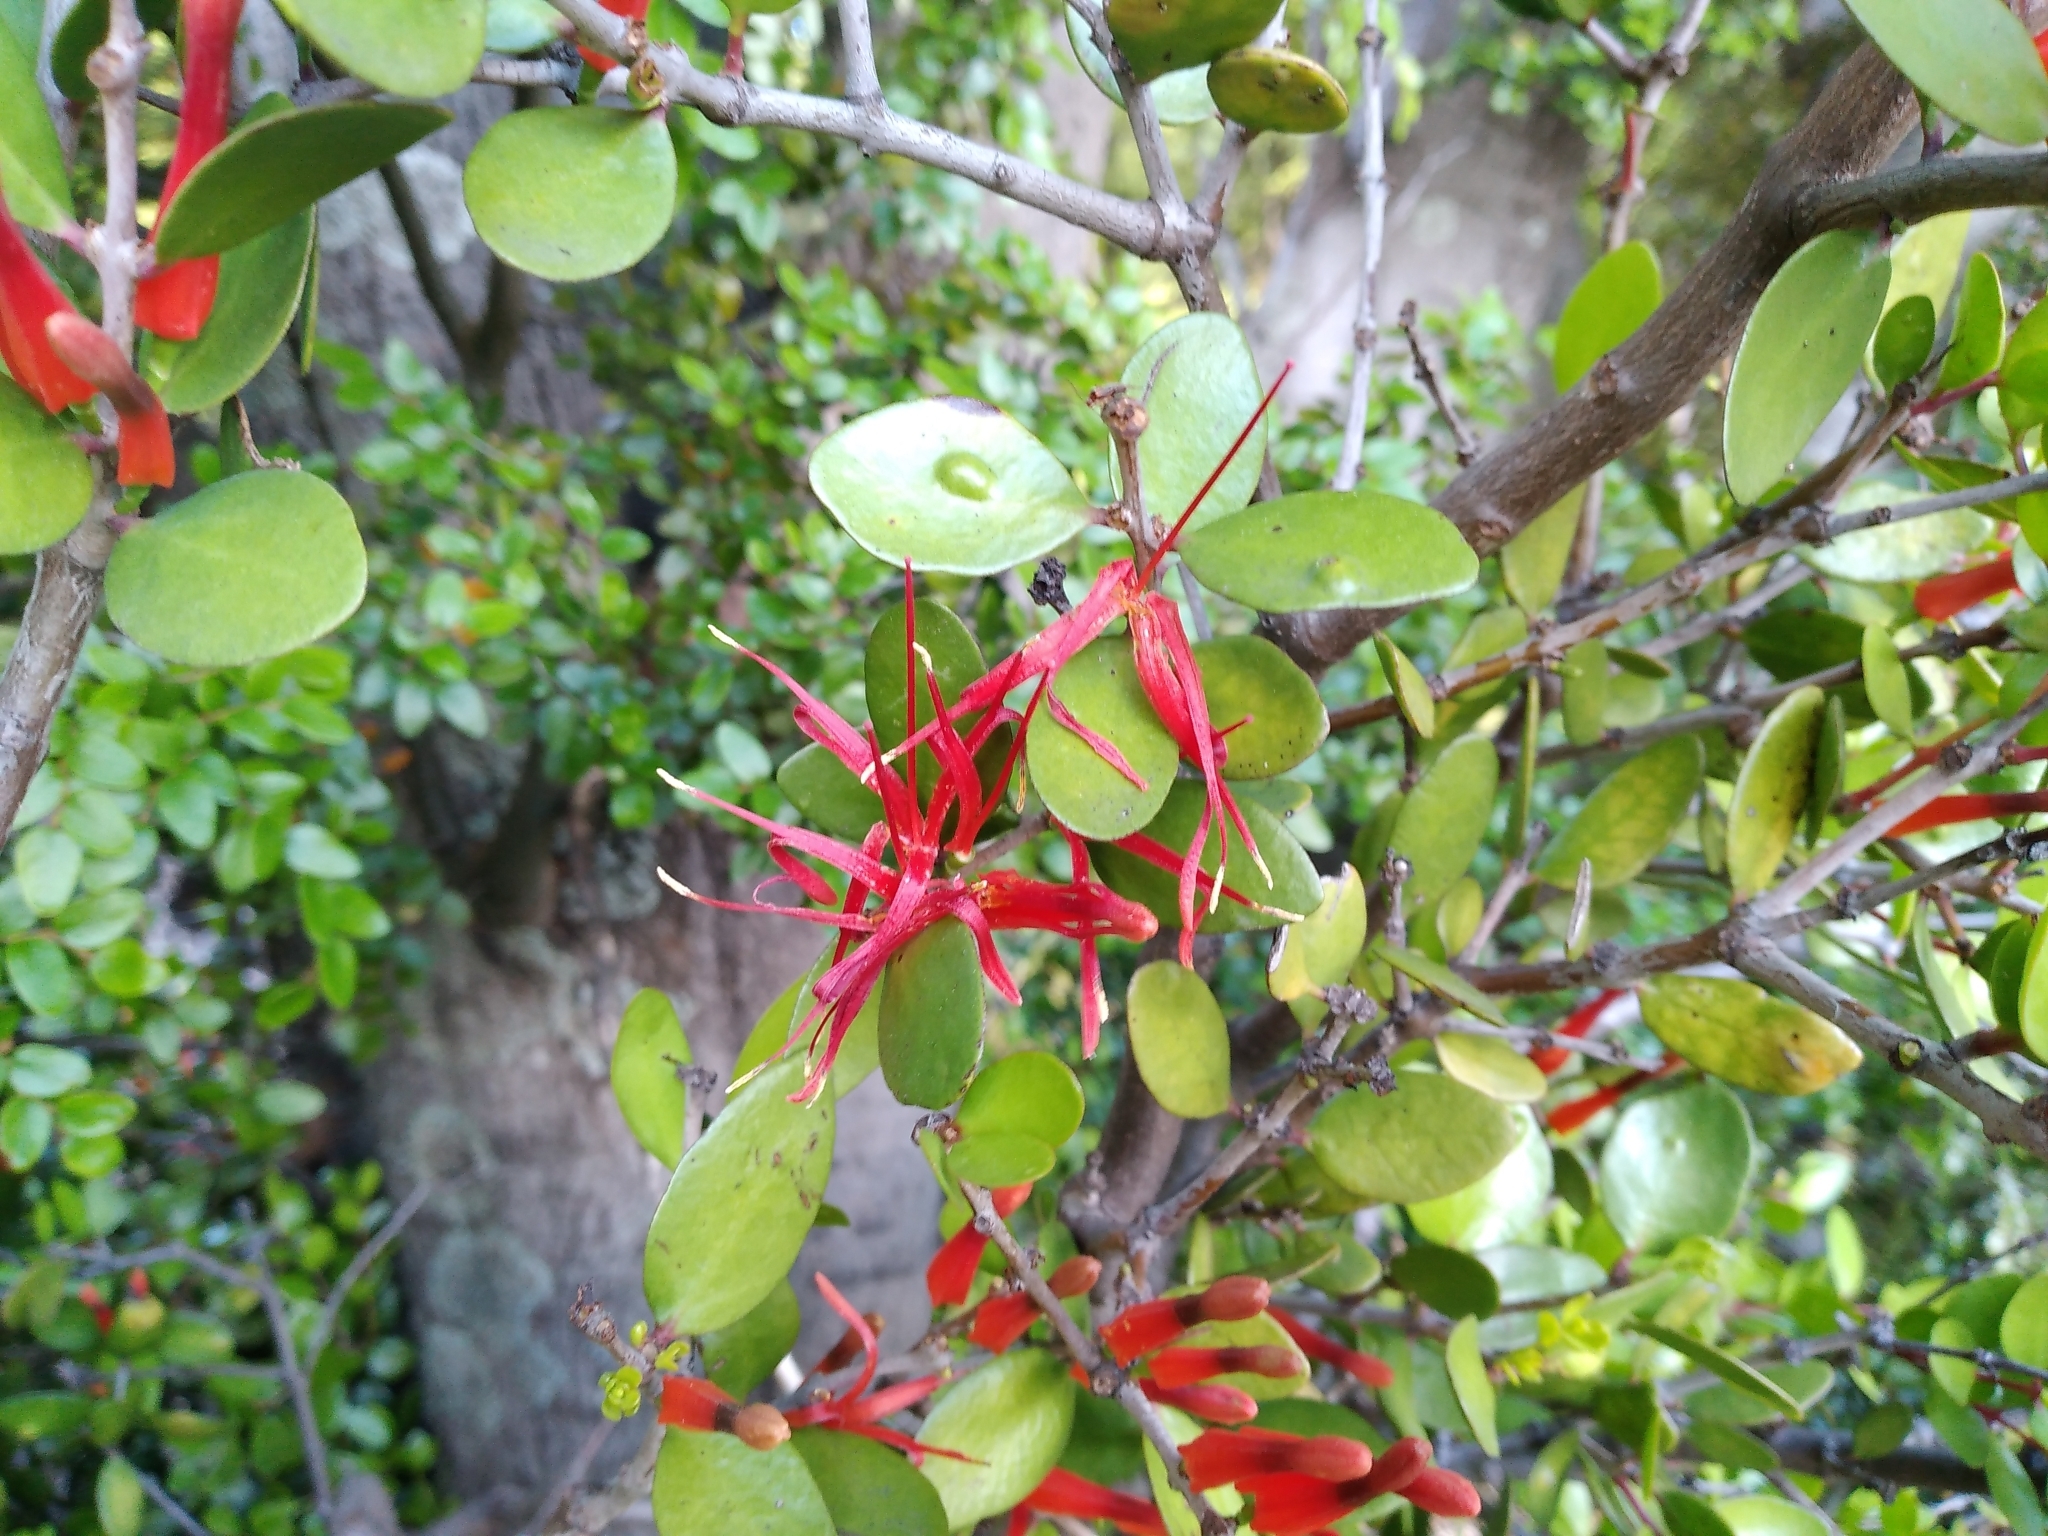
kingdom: Plantae
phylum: Tracheophyta
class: Magnoliopsida
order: Santalales
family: Loranthaceae
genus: Peraxilla
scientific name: Peraxilla tetrapetala
